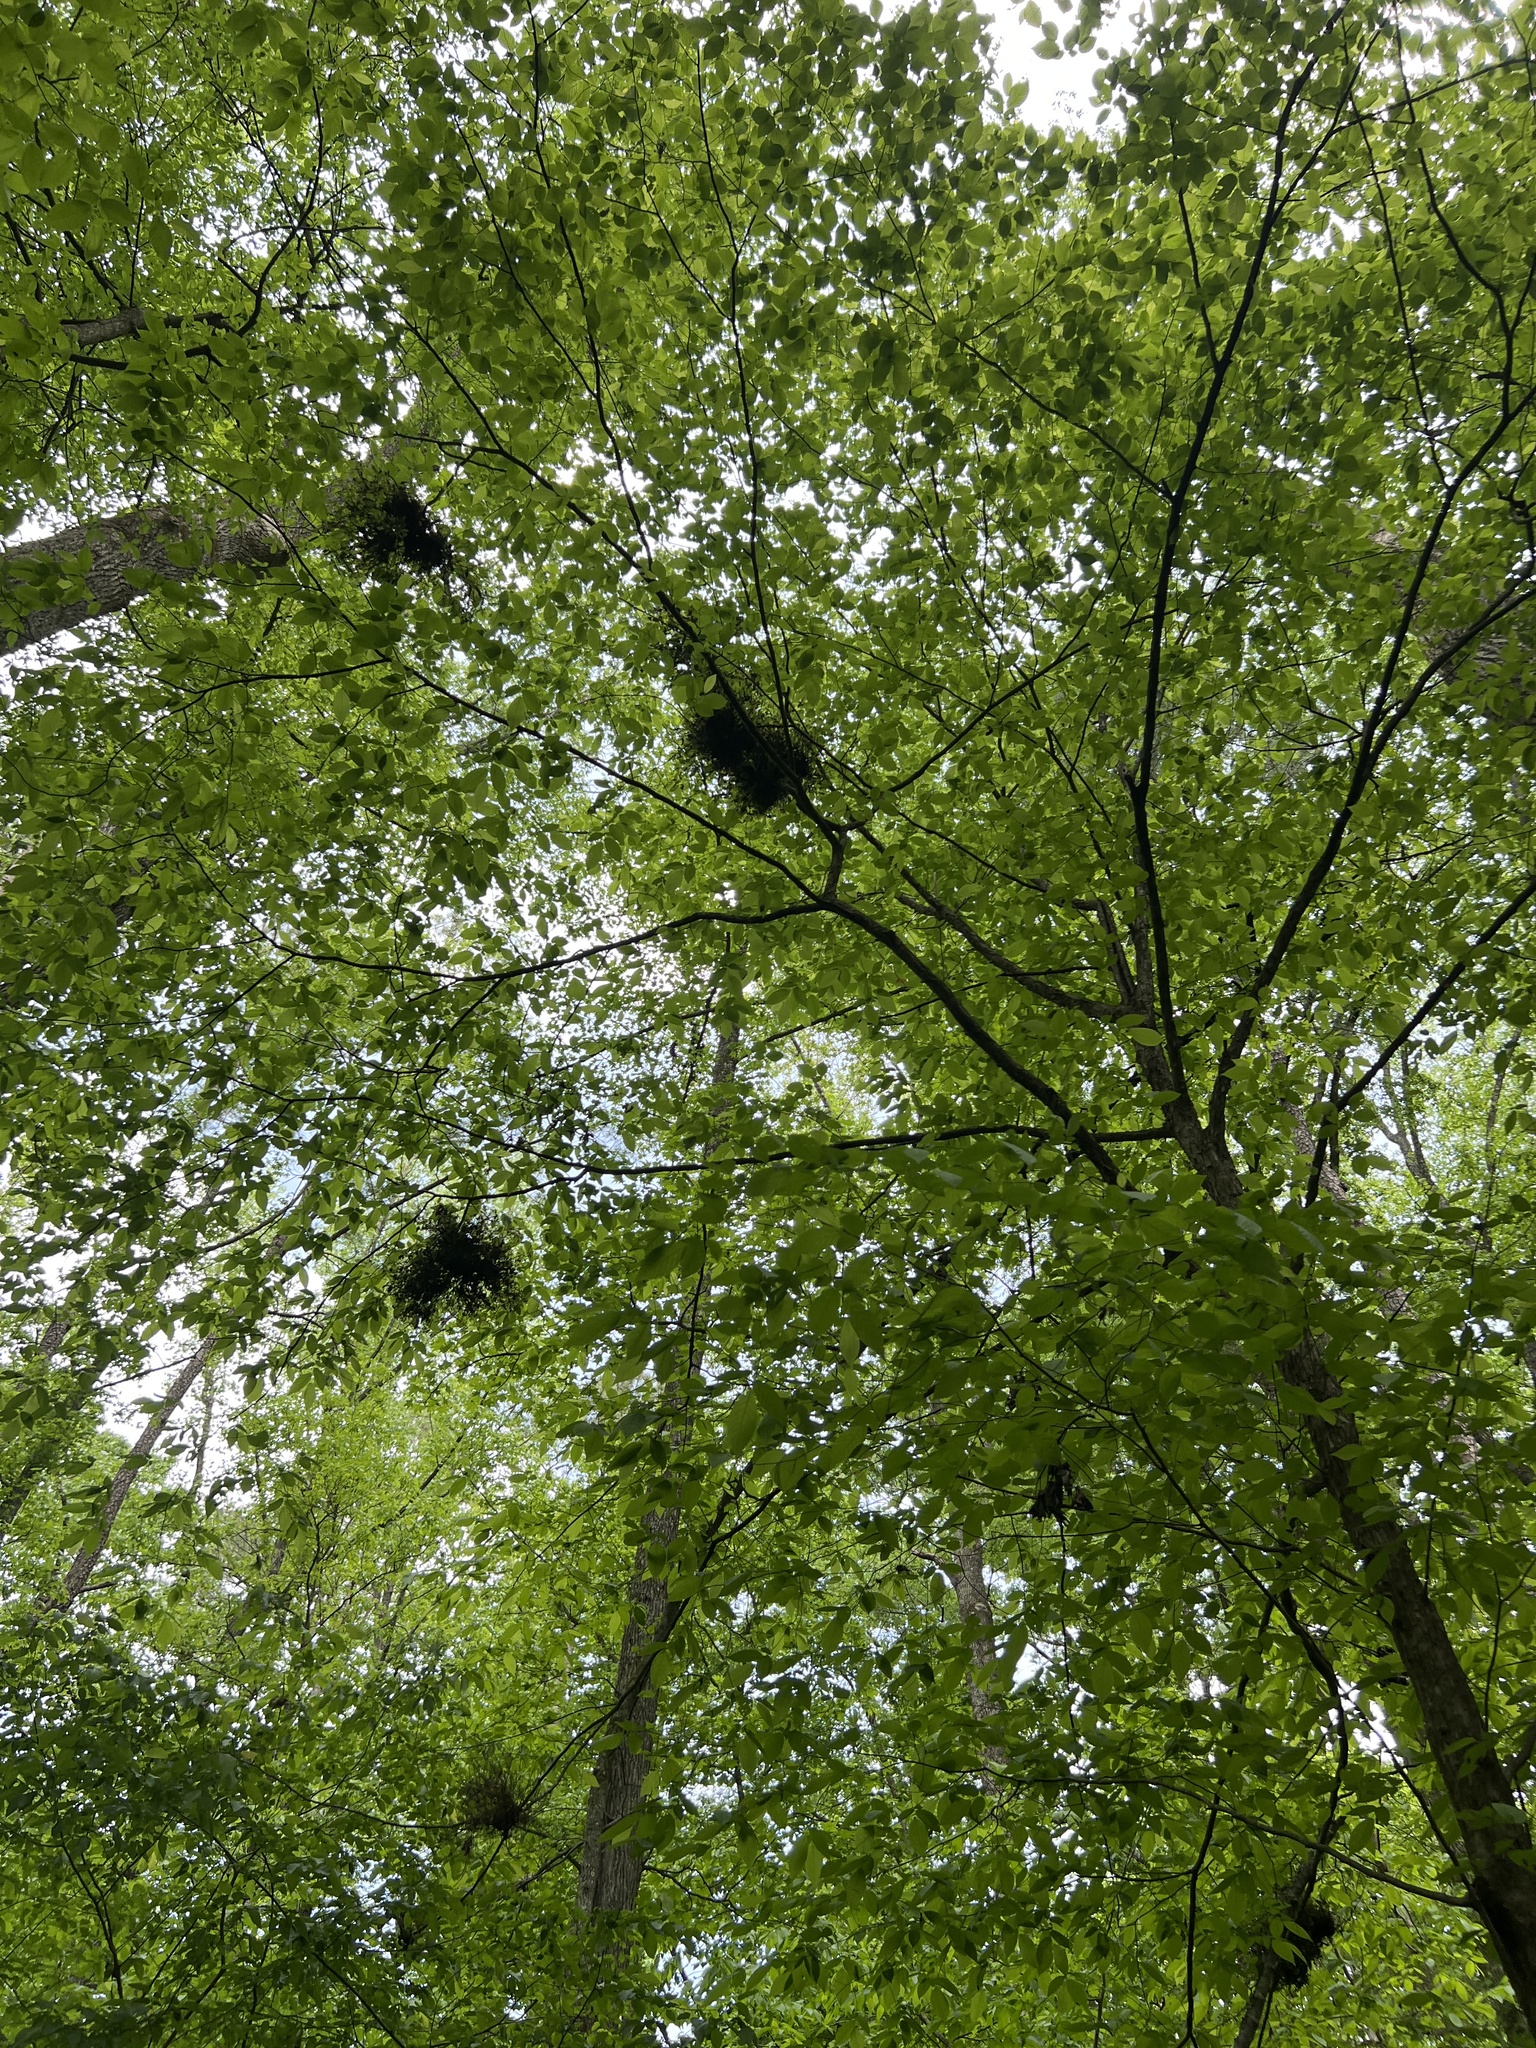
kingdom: Plantae
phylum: Tracheophyta
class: Magnoliopsida
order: Fagales
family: Betulaceae
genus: Ostrya
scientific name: Ostrya virginiana
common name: Ironwood
